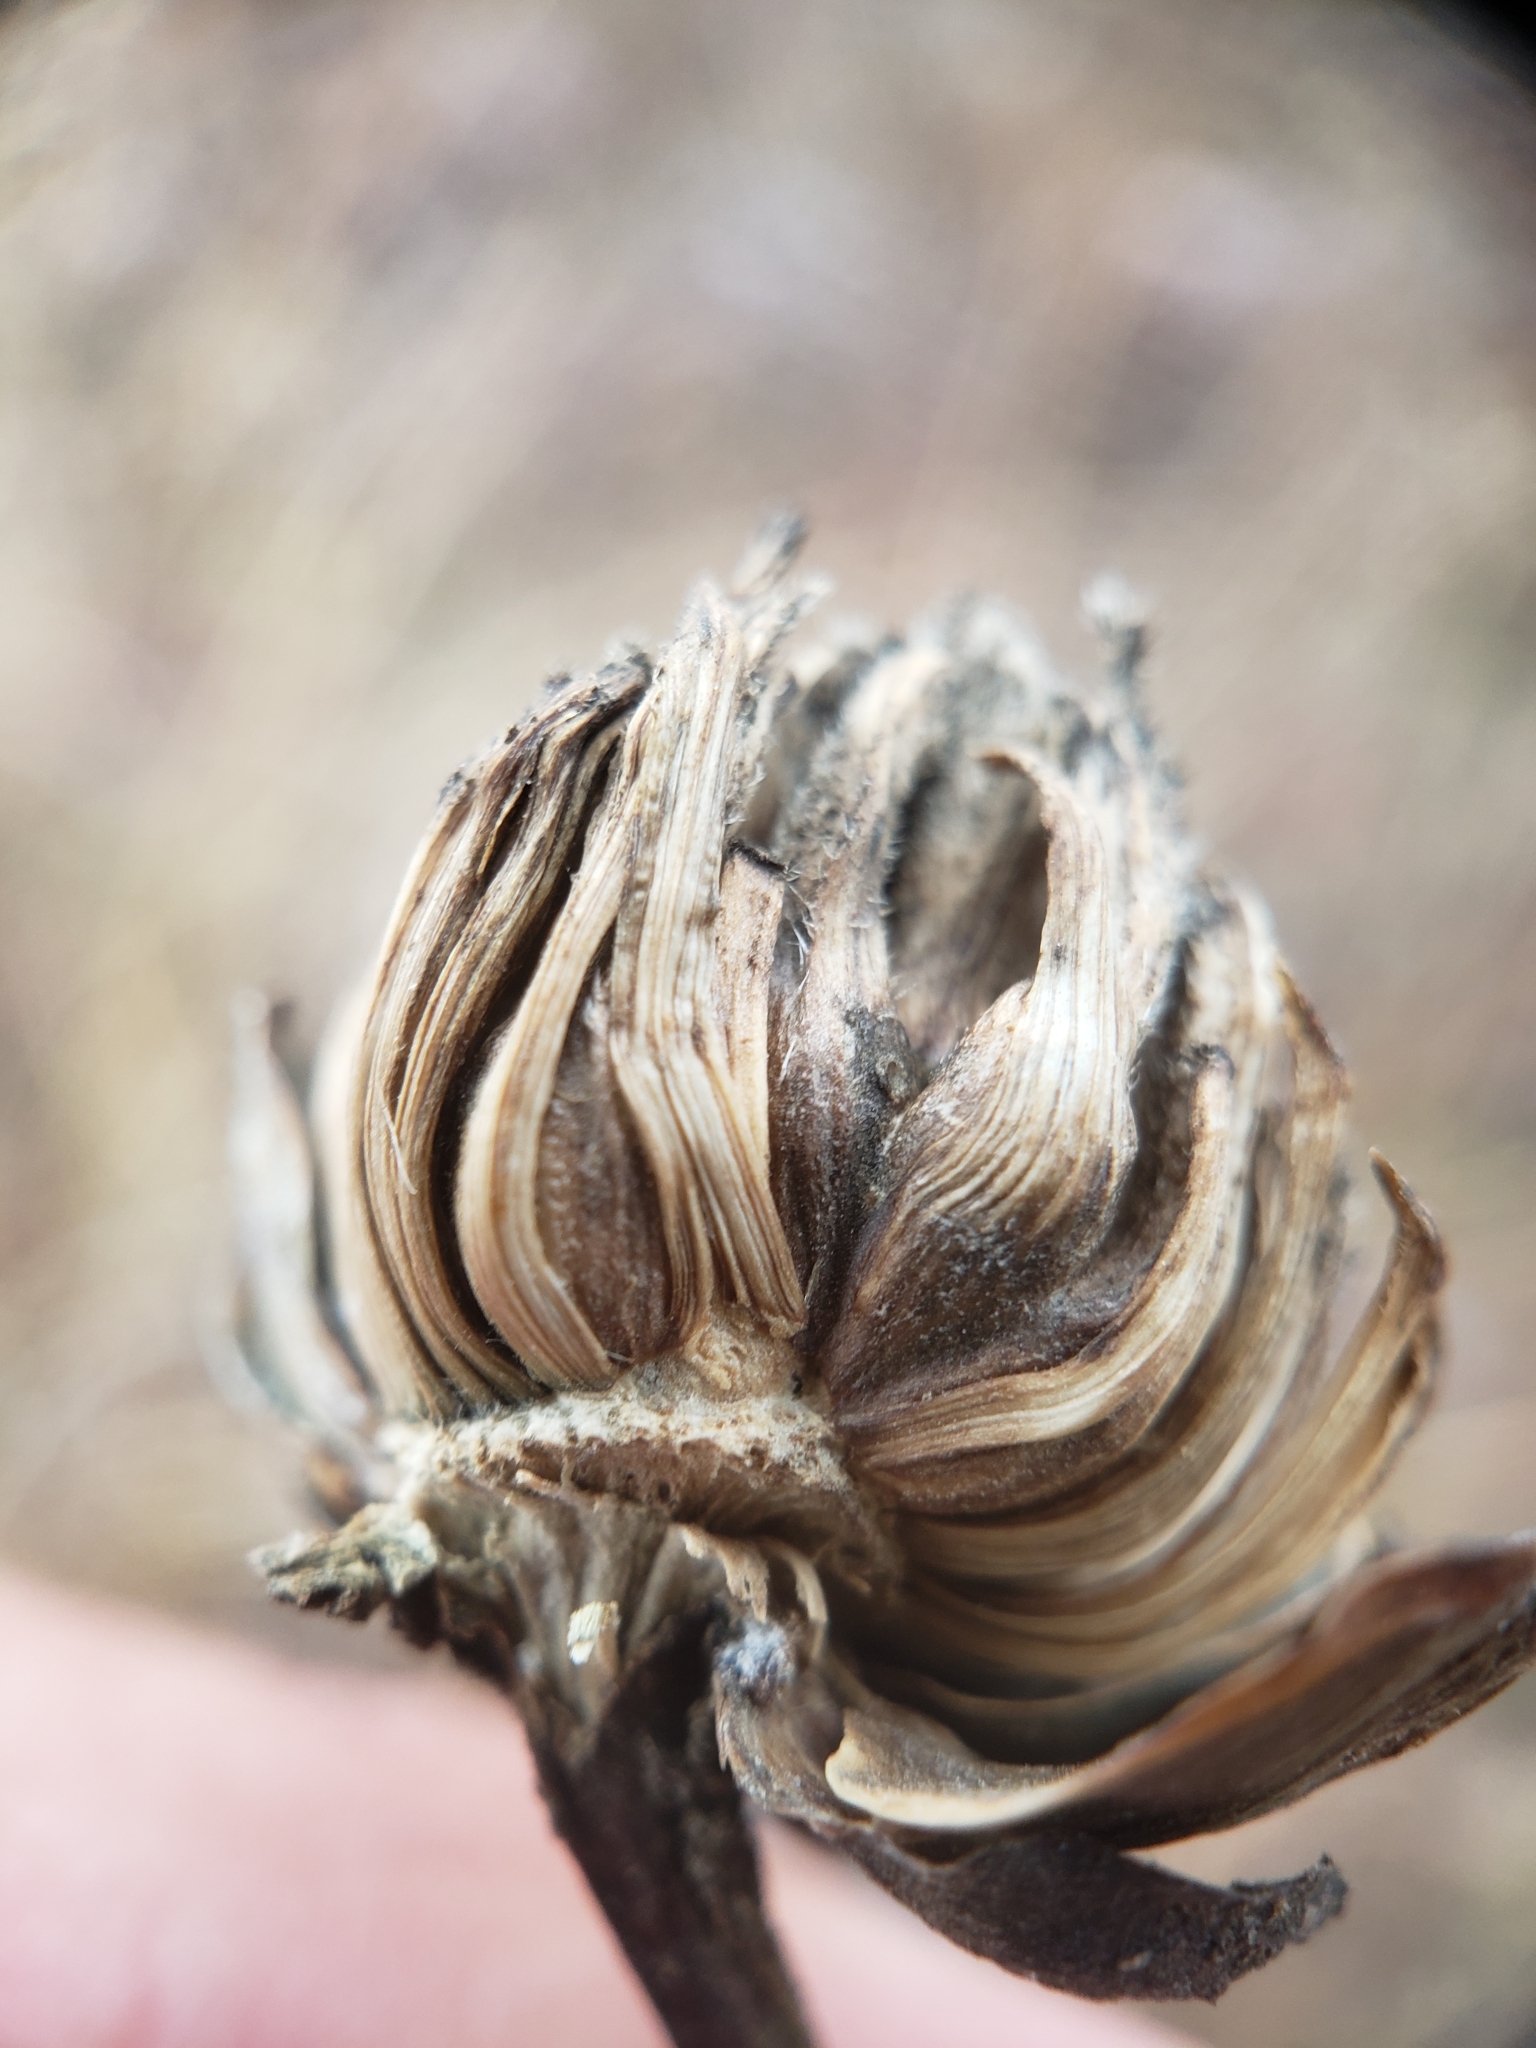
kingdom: Animalia
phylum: Arthropoda
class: Insecta
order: Hymenoptera
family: Cynipidae
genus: Antistrophus
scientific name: Antistrophus
